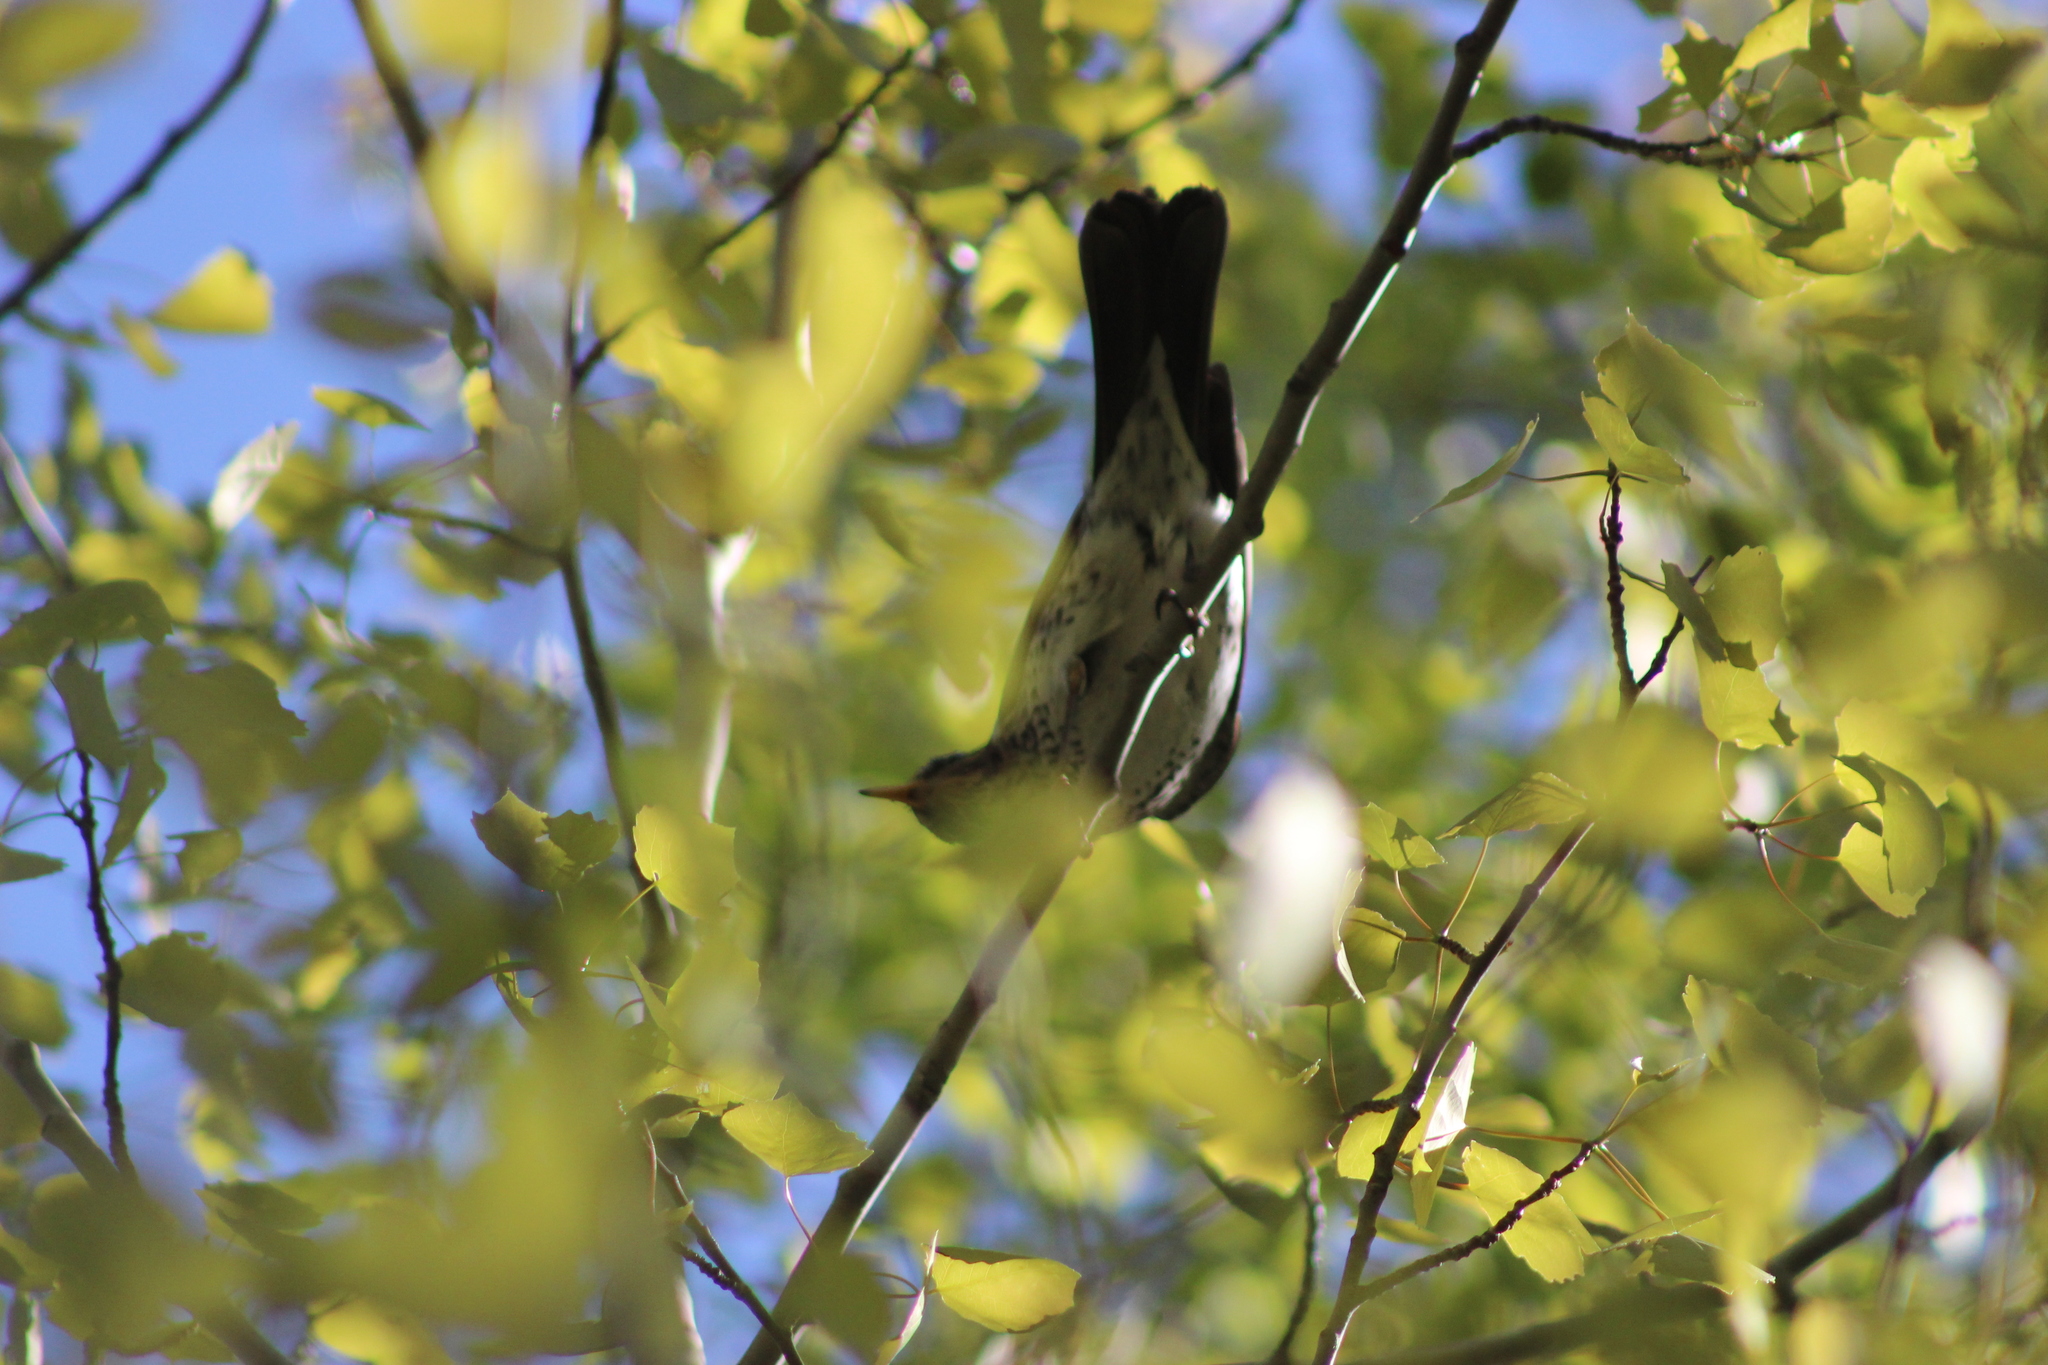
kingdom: Animalia
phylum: Chordata
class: Aves
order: Passeriformes
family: Turdidae
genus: Turdus
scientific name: Turdus pilaris
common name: Fieldfare
